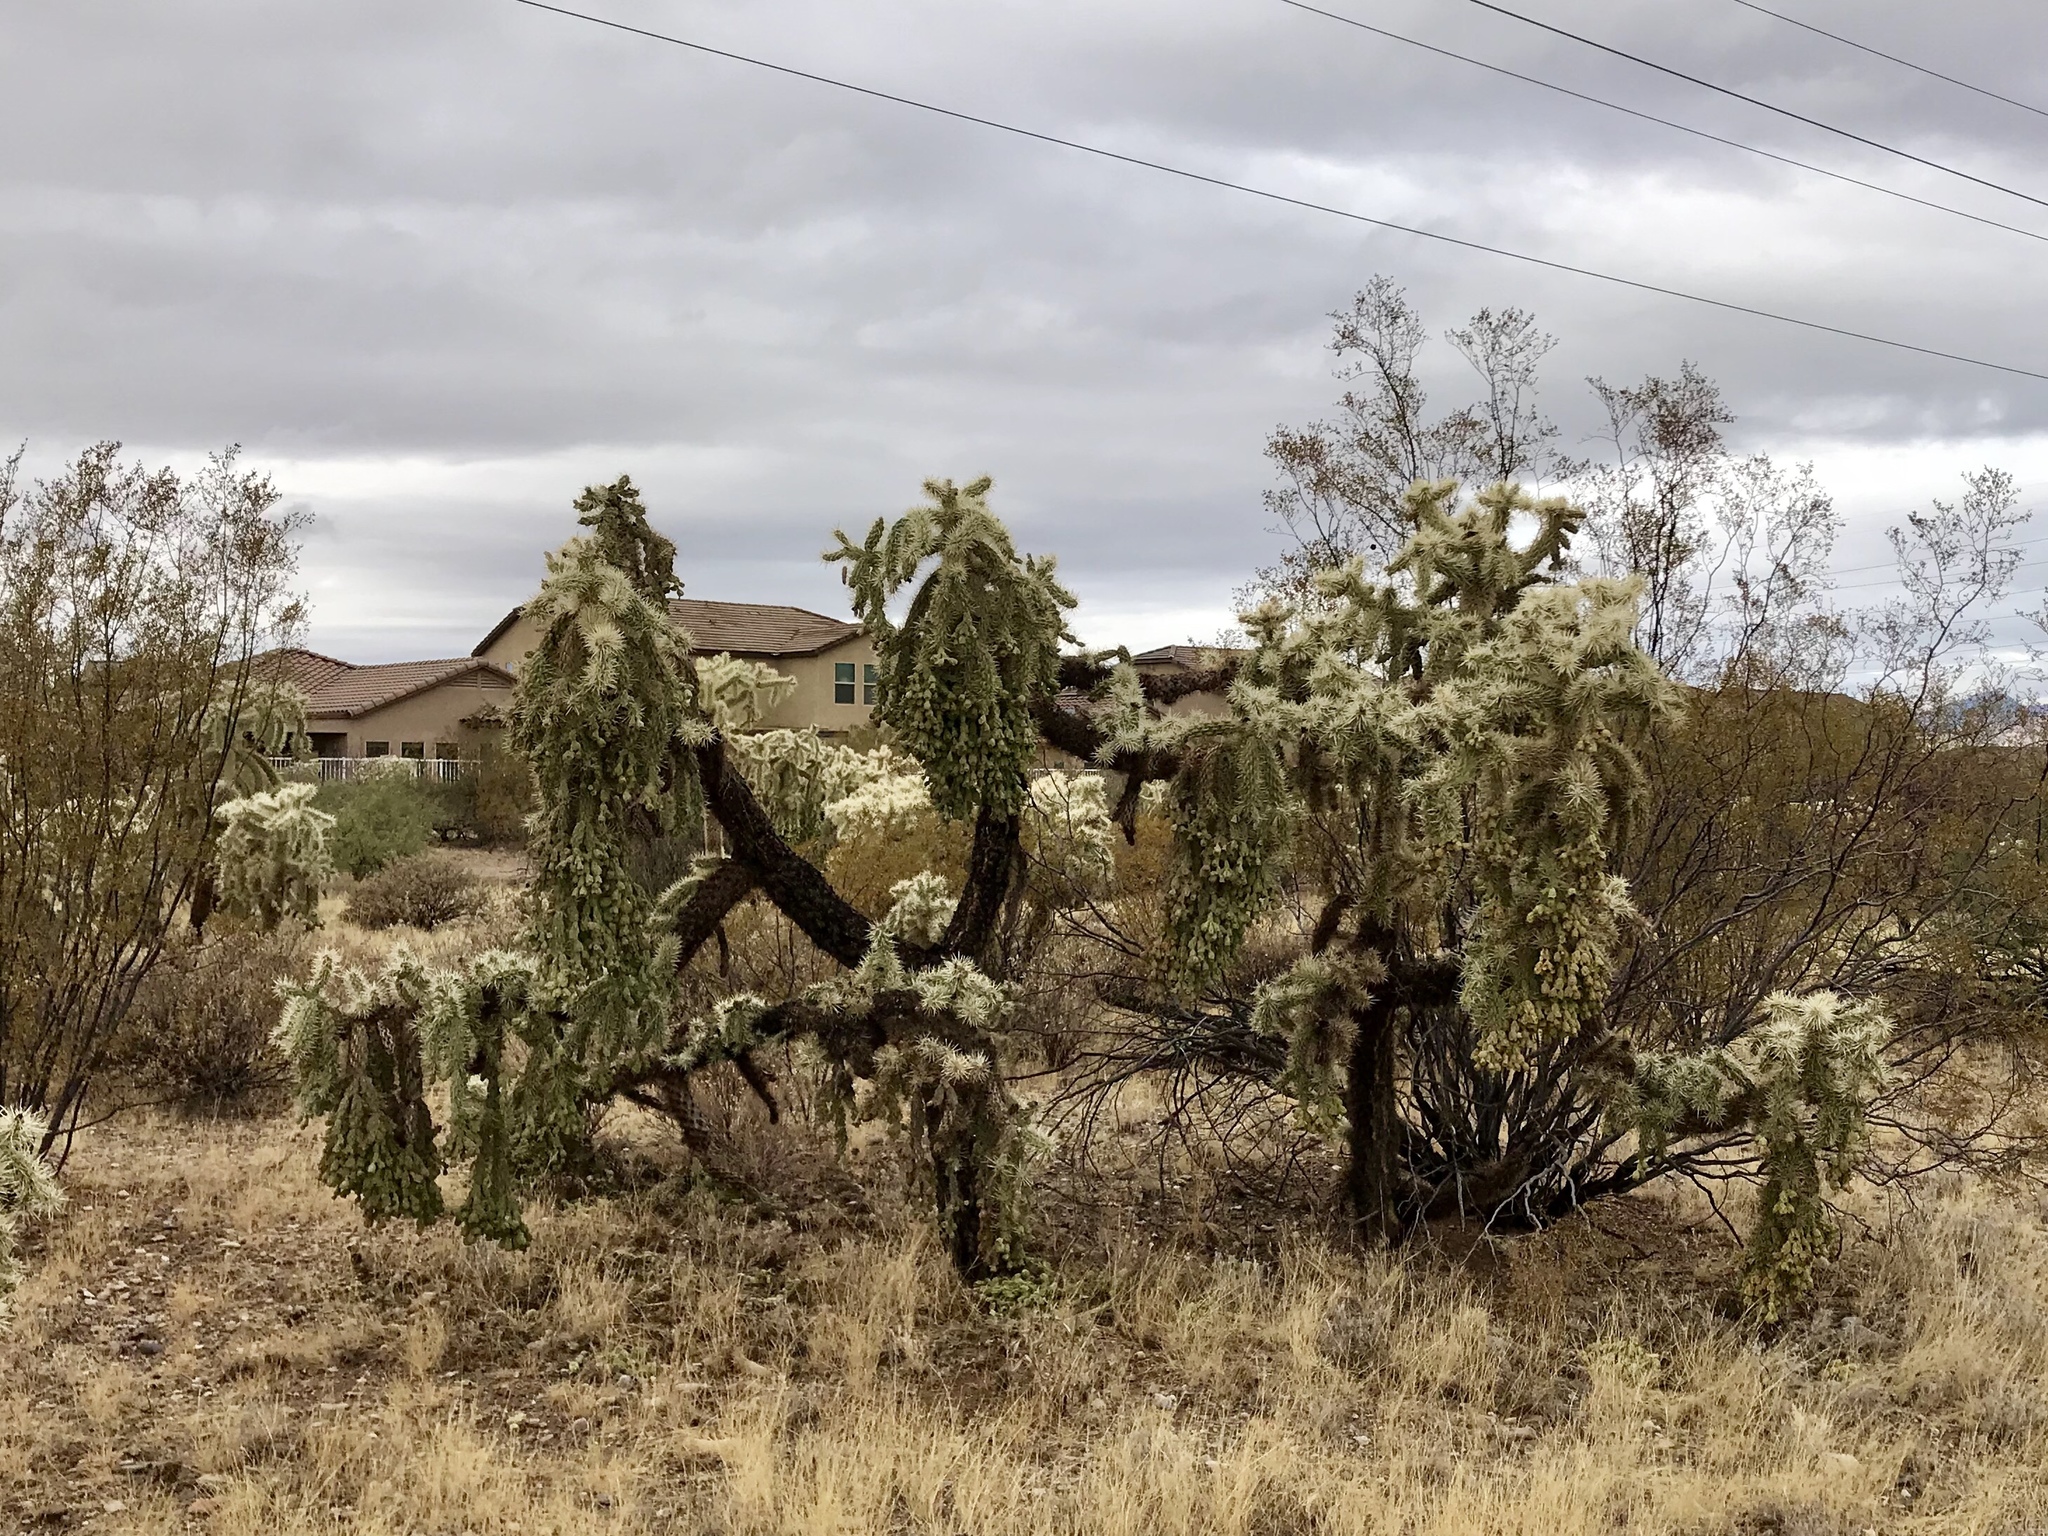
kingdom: Plantae
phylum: Tracheophyta
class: Magnoliopsida
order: Caryophyllales
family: Cactaceae
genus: Cylindropuntia
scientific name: Cylindropuntia fulgida
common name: Jumping cholla
